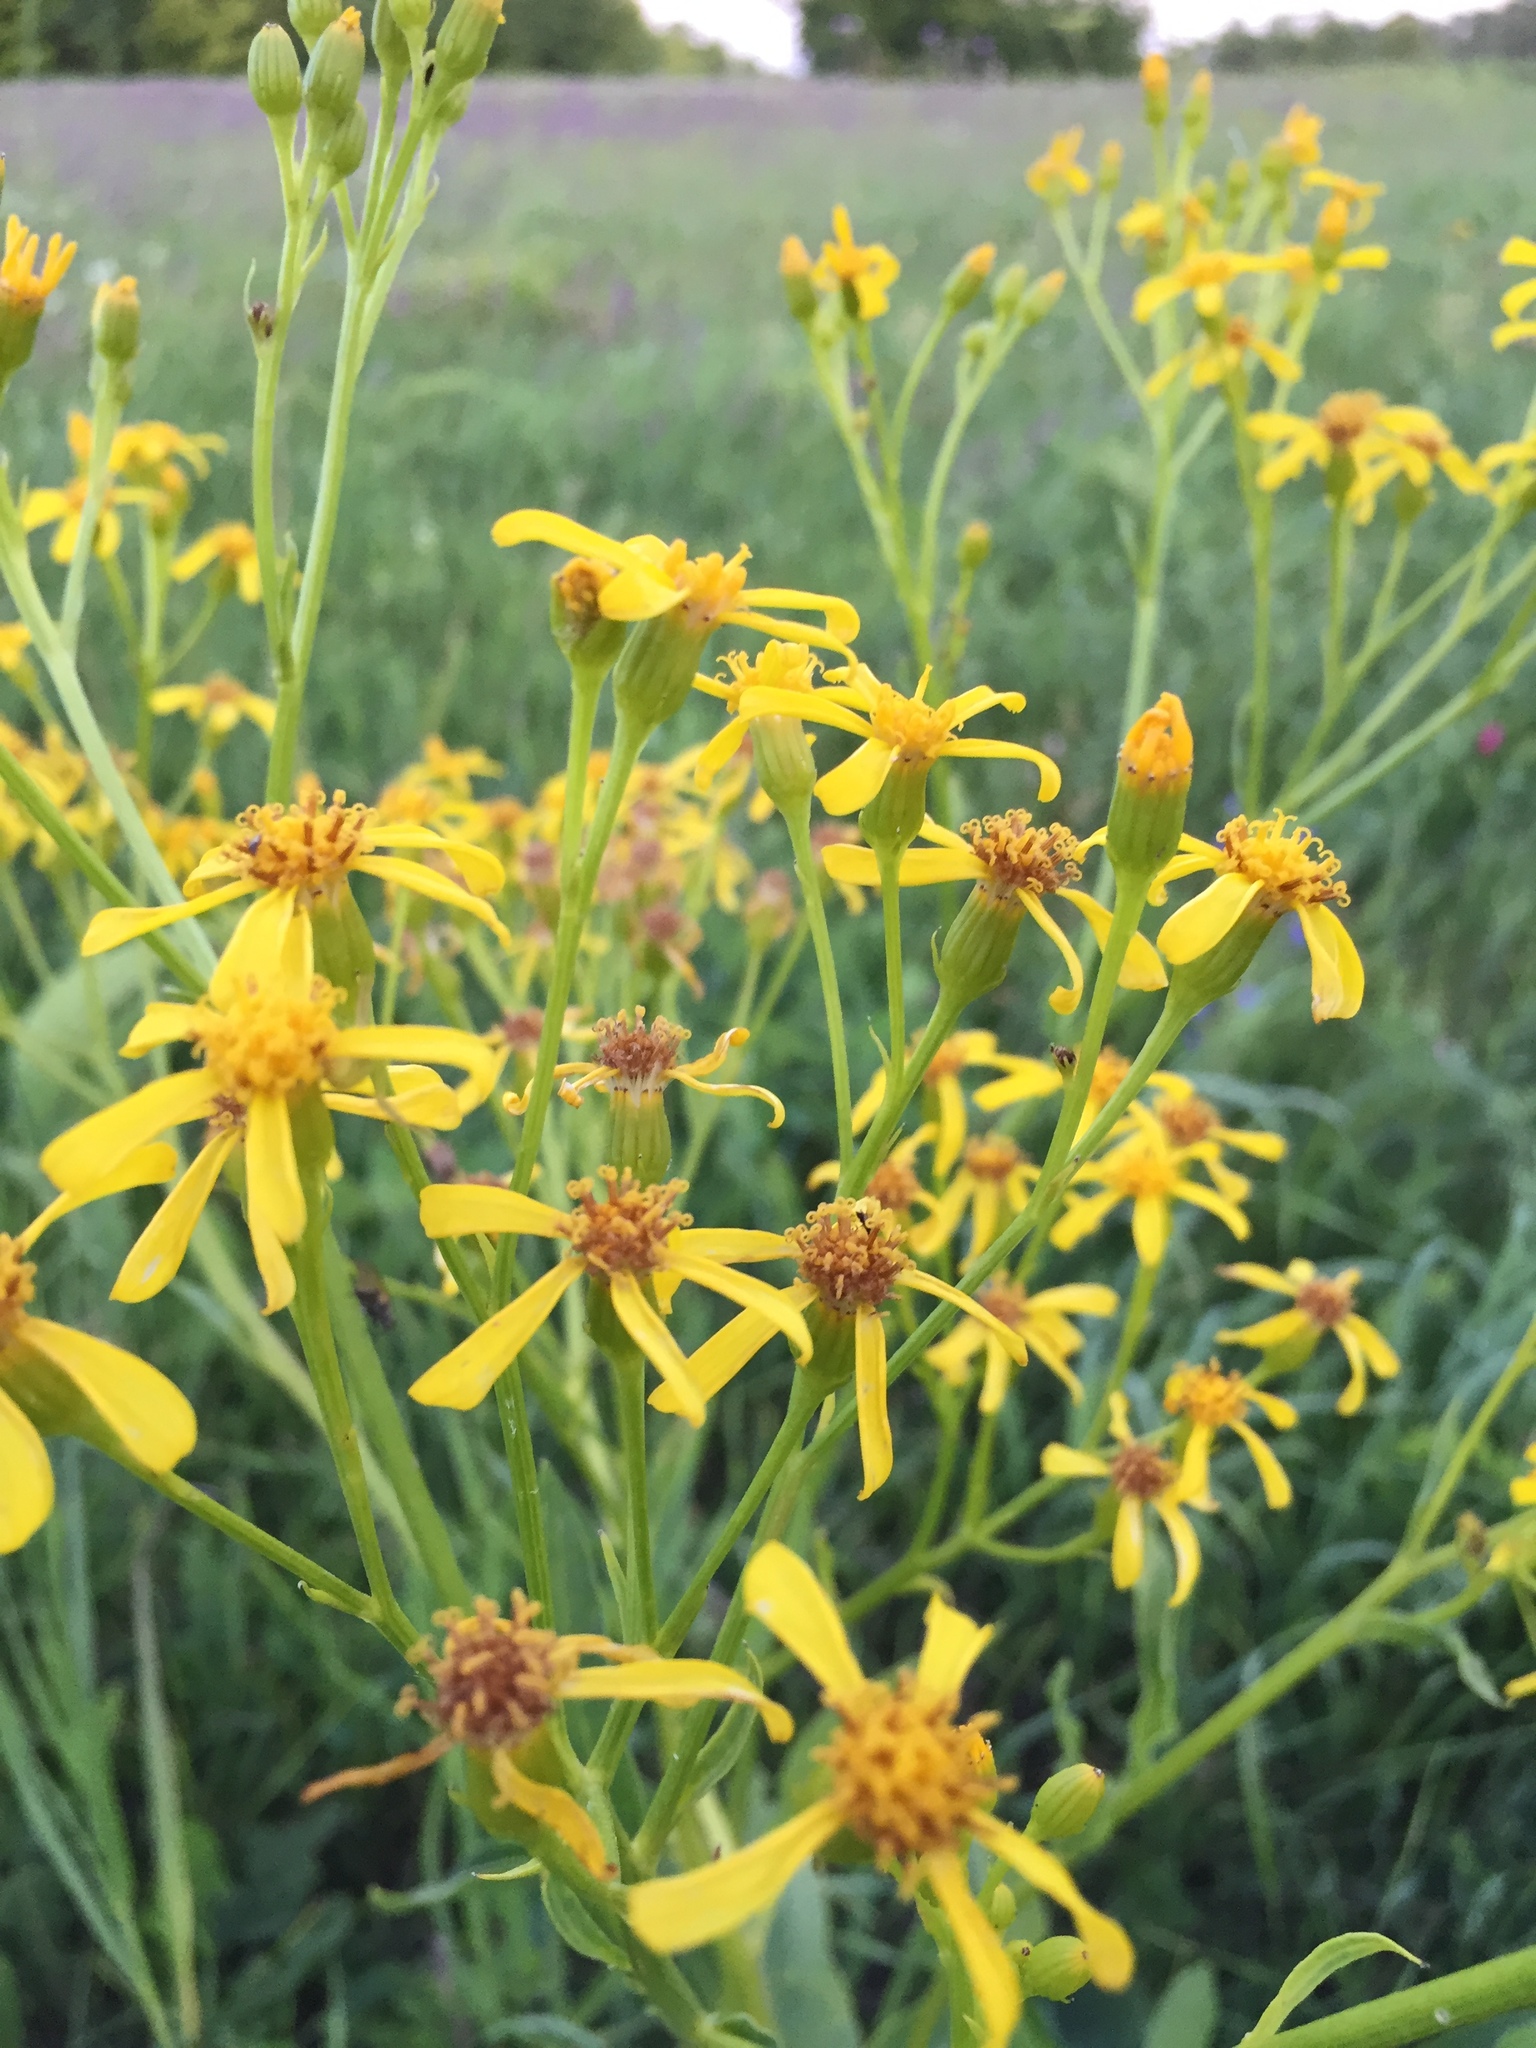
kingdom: Plantae
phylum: Tracheophyta
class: Magnoliopsida
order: Asterales
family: Asteraceae
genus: Senecio
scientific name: Senecio doria
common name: Golden ragwort
